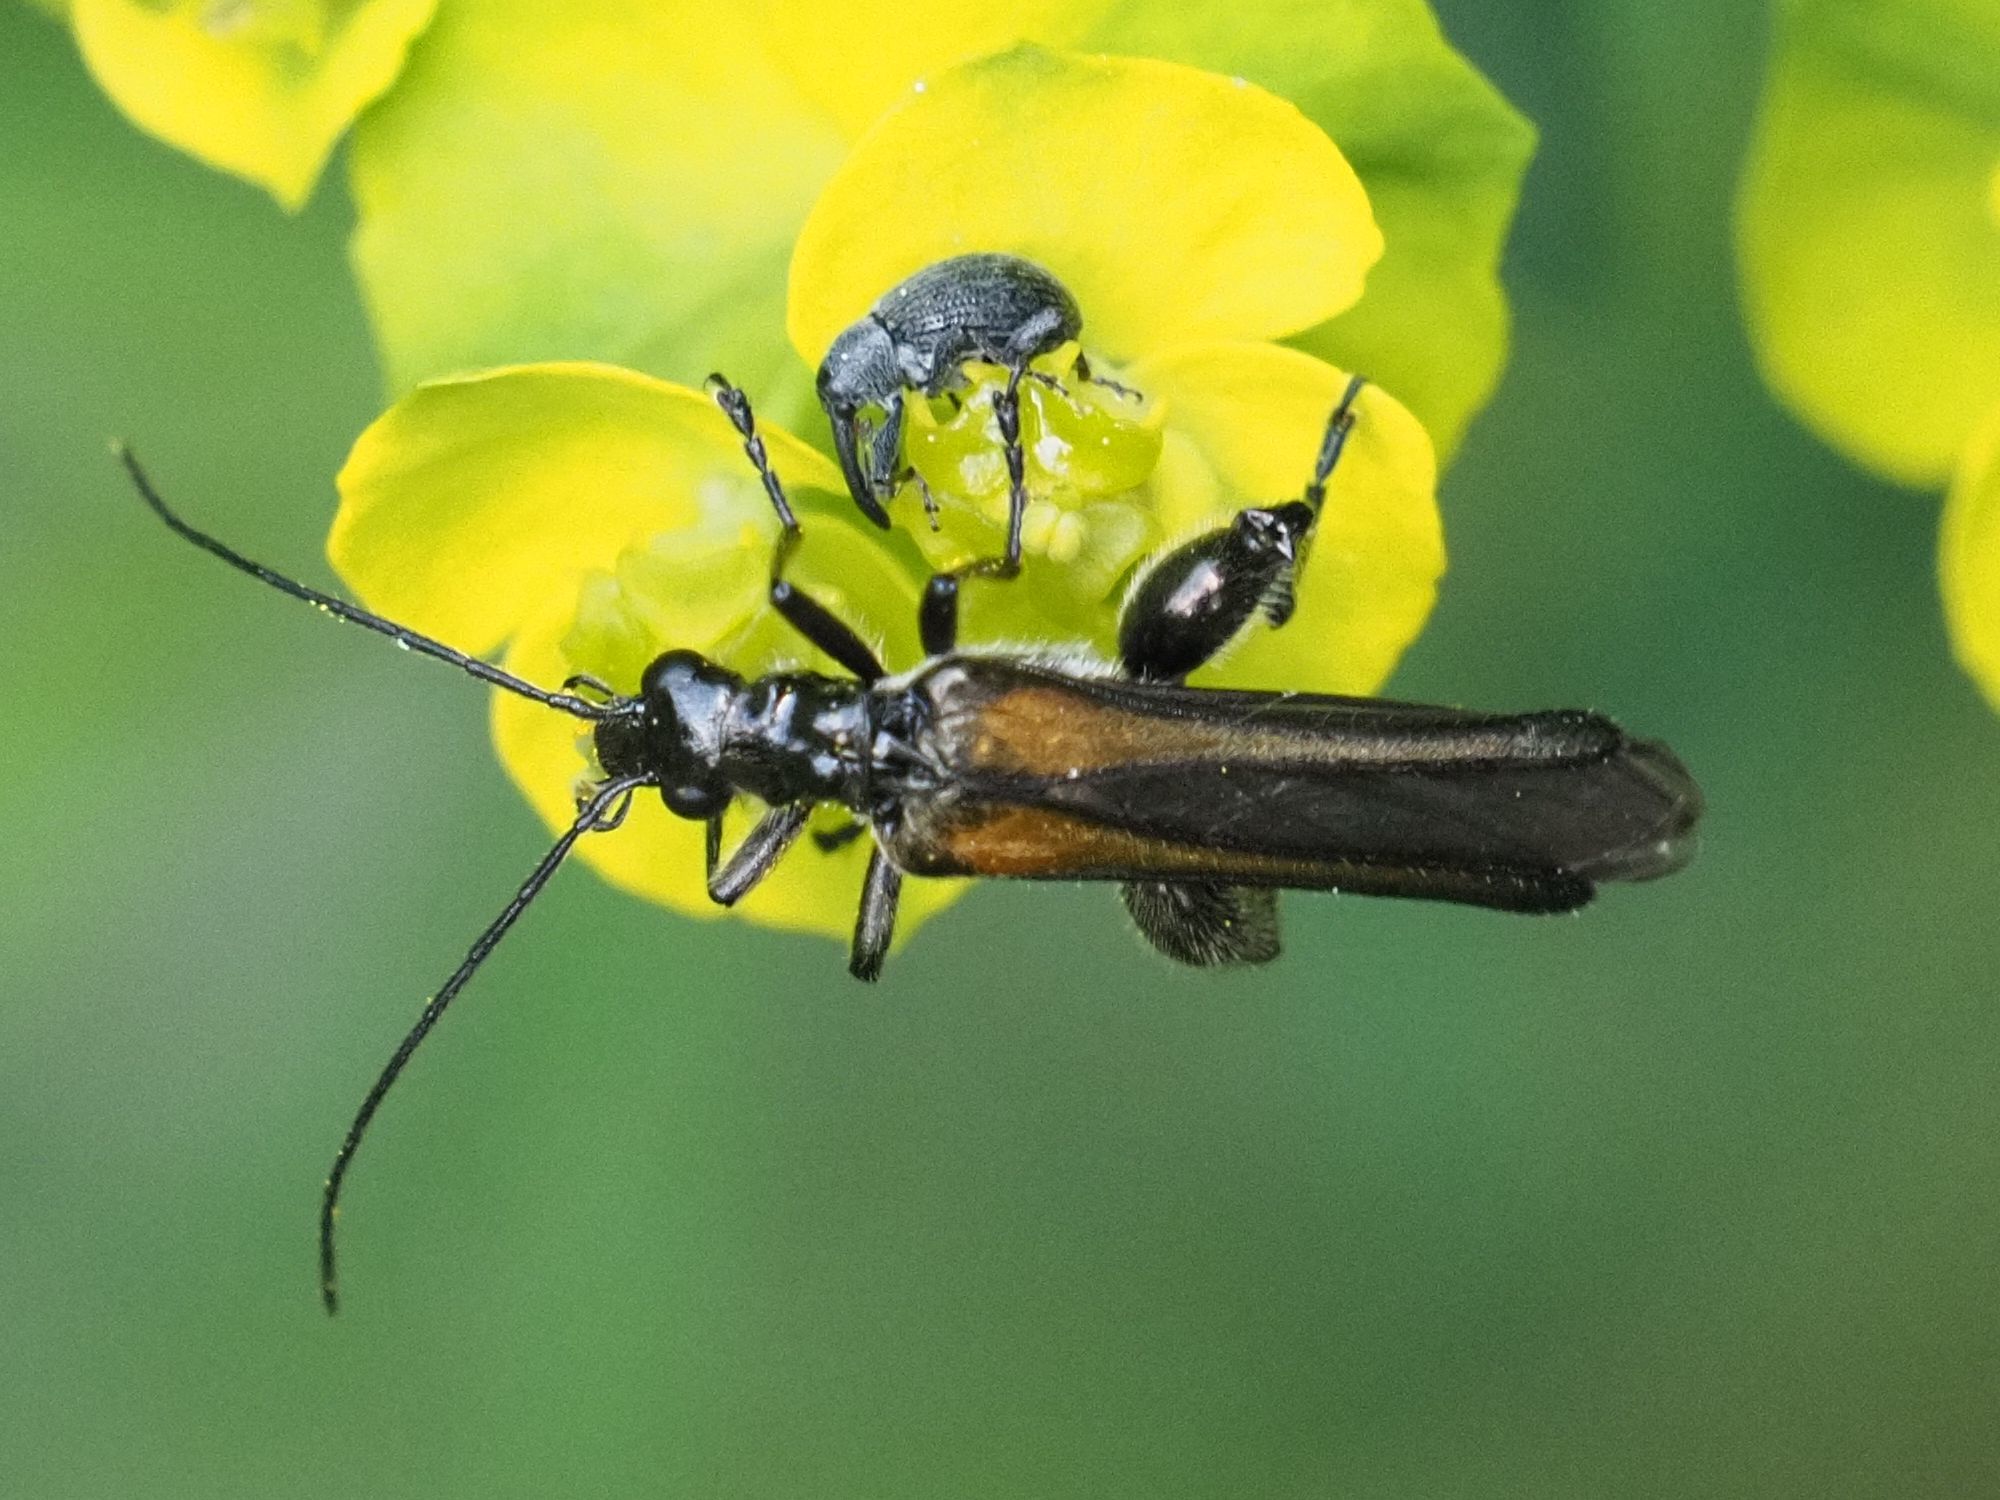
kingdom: Animalia
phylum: Arthropoda
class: Insecta
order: Coleoptera
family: Oedemeridae
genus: Oedemera
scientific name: Oedemera pthysica
